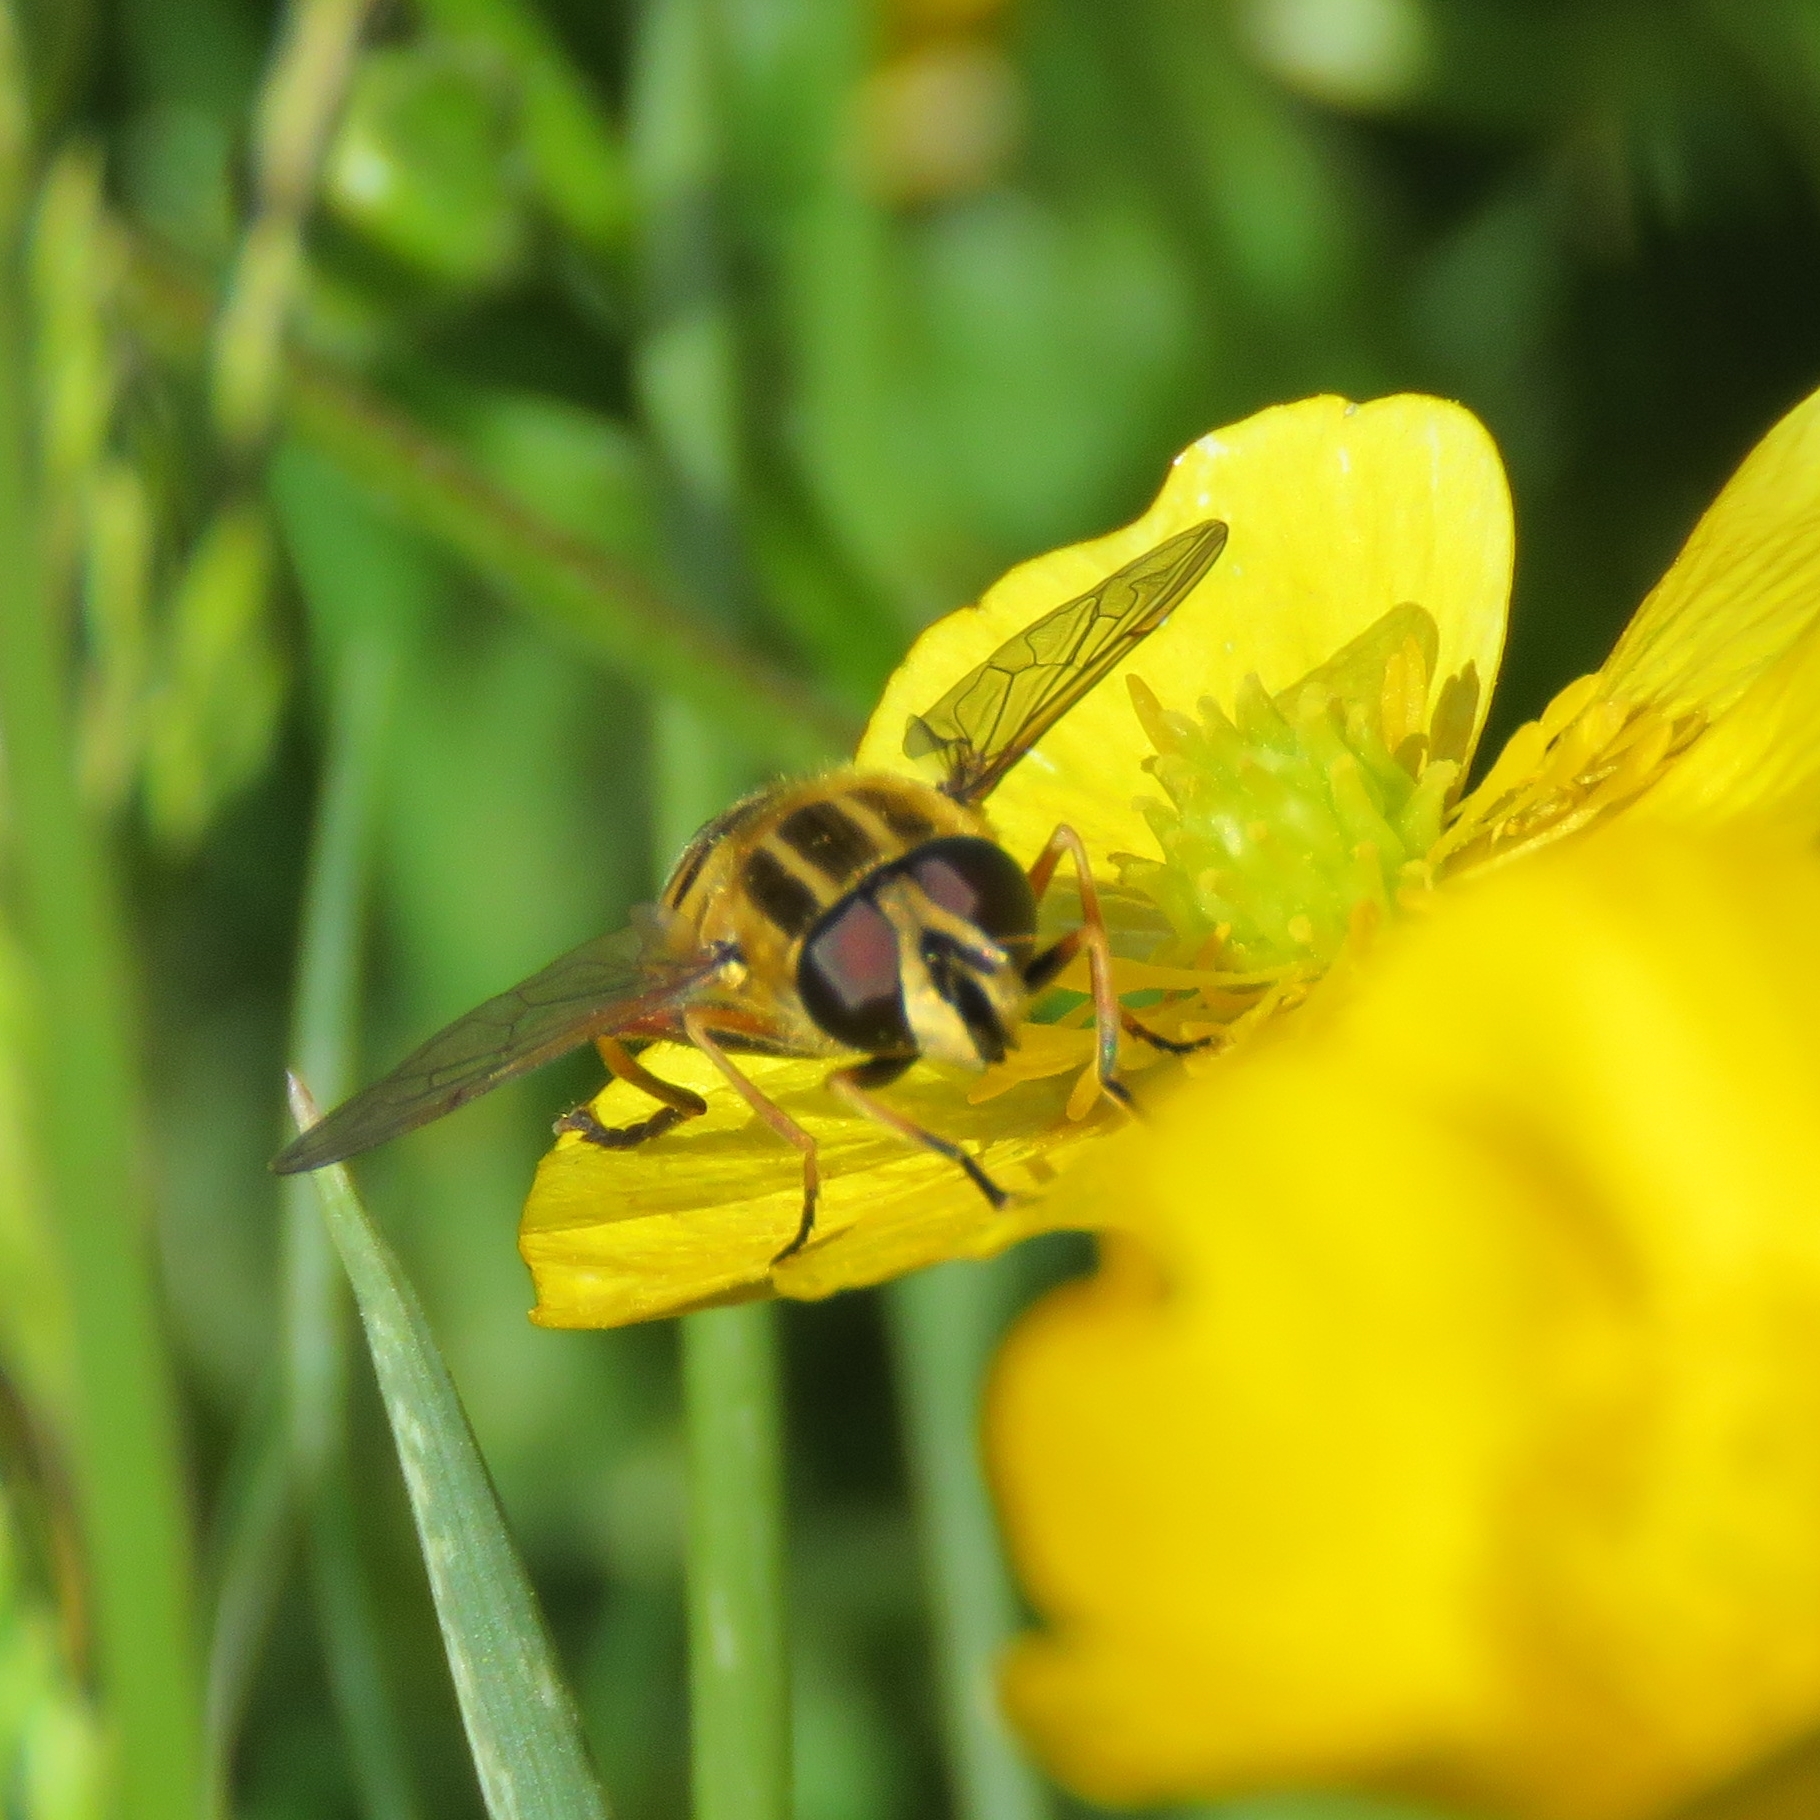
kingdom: Animalia
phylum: Arthropoda
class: Insecta
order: Diptera
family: Syrphidae
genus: Helophilus
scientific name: Helophilus pendulus
